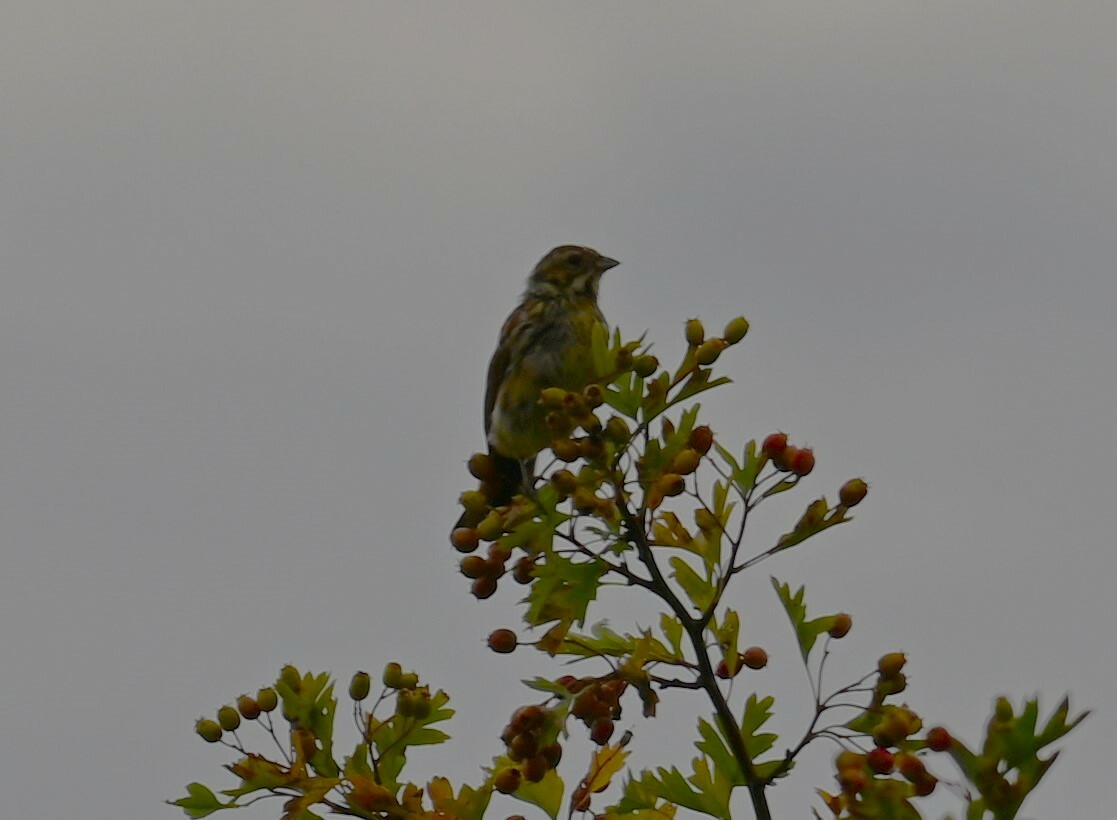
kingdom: Animalia
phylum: Chordata
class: Aves
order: Passeriformes
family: Emberizidae
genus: Emberiza
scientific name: Emberiza schoeniclus
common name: Reed bunting
